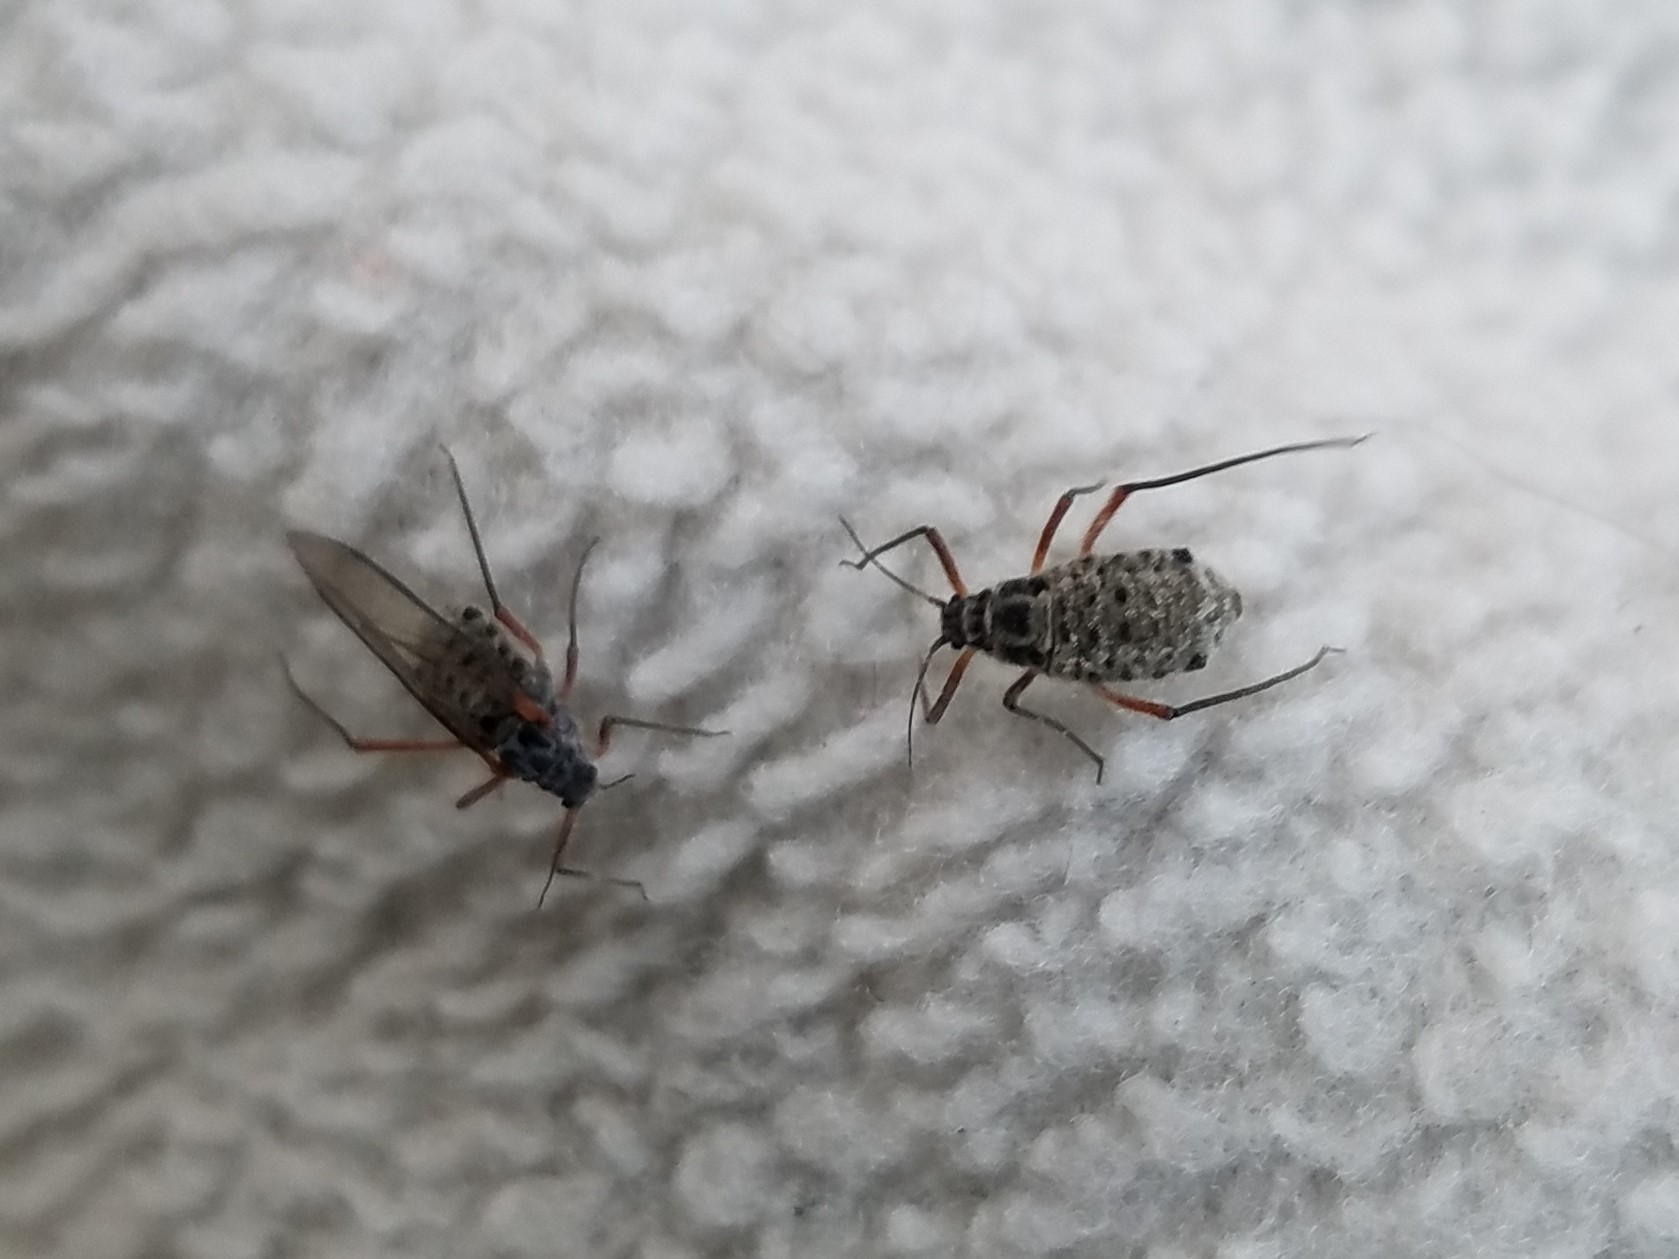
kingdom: Animalia
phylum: Arthropoda
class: Insecta
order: Hemiptera
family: Aphididae
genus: Longistigma
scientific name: Longistigma caryae
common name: Giant bark aphid
